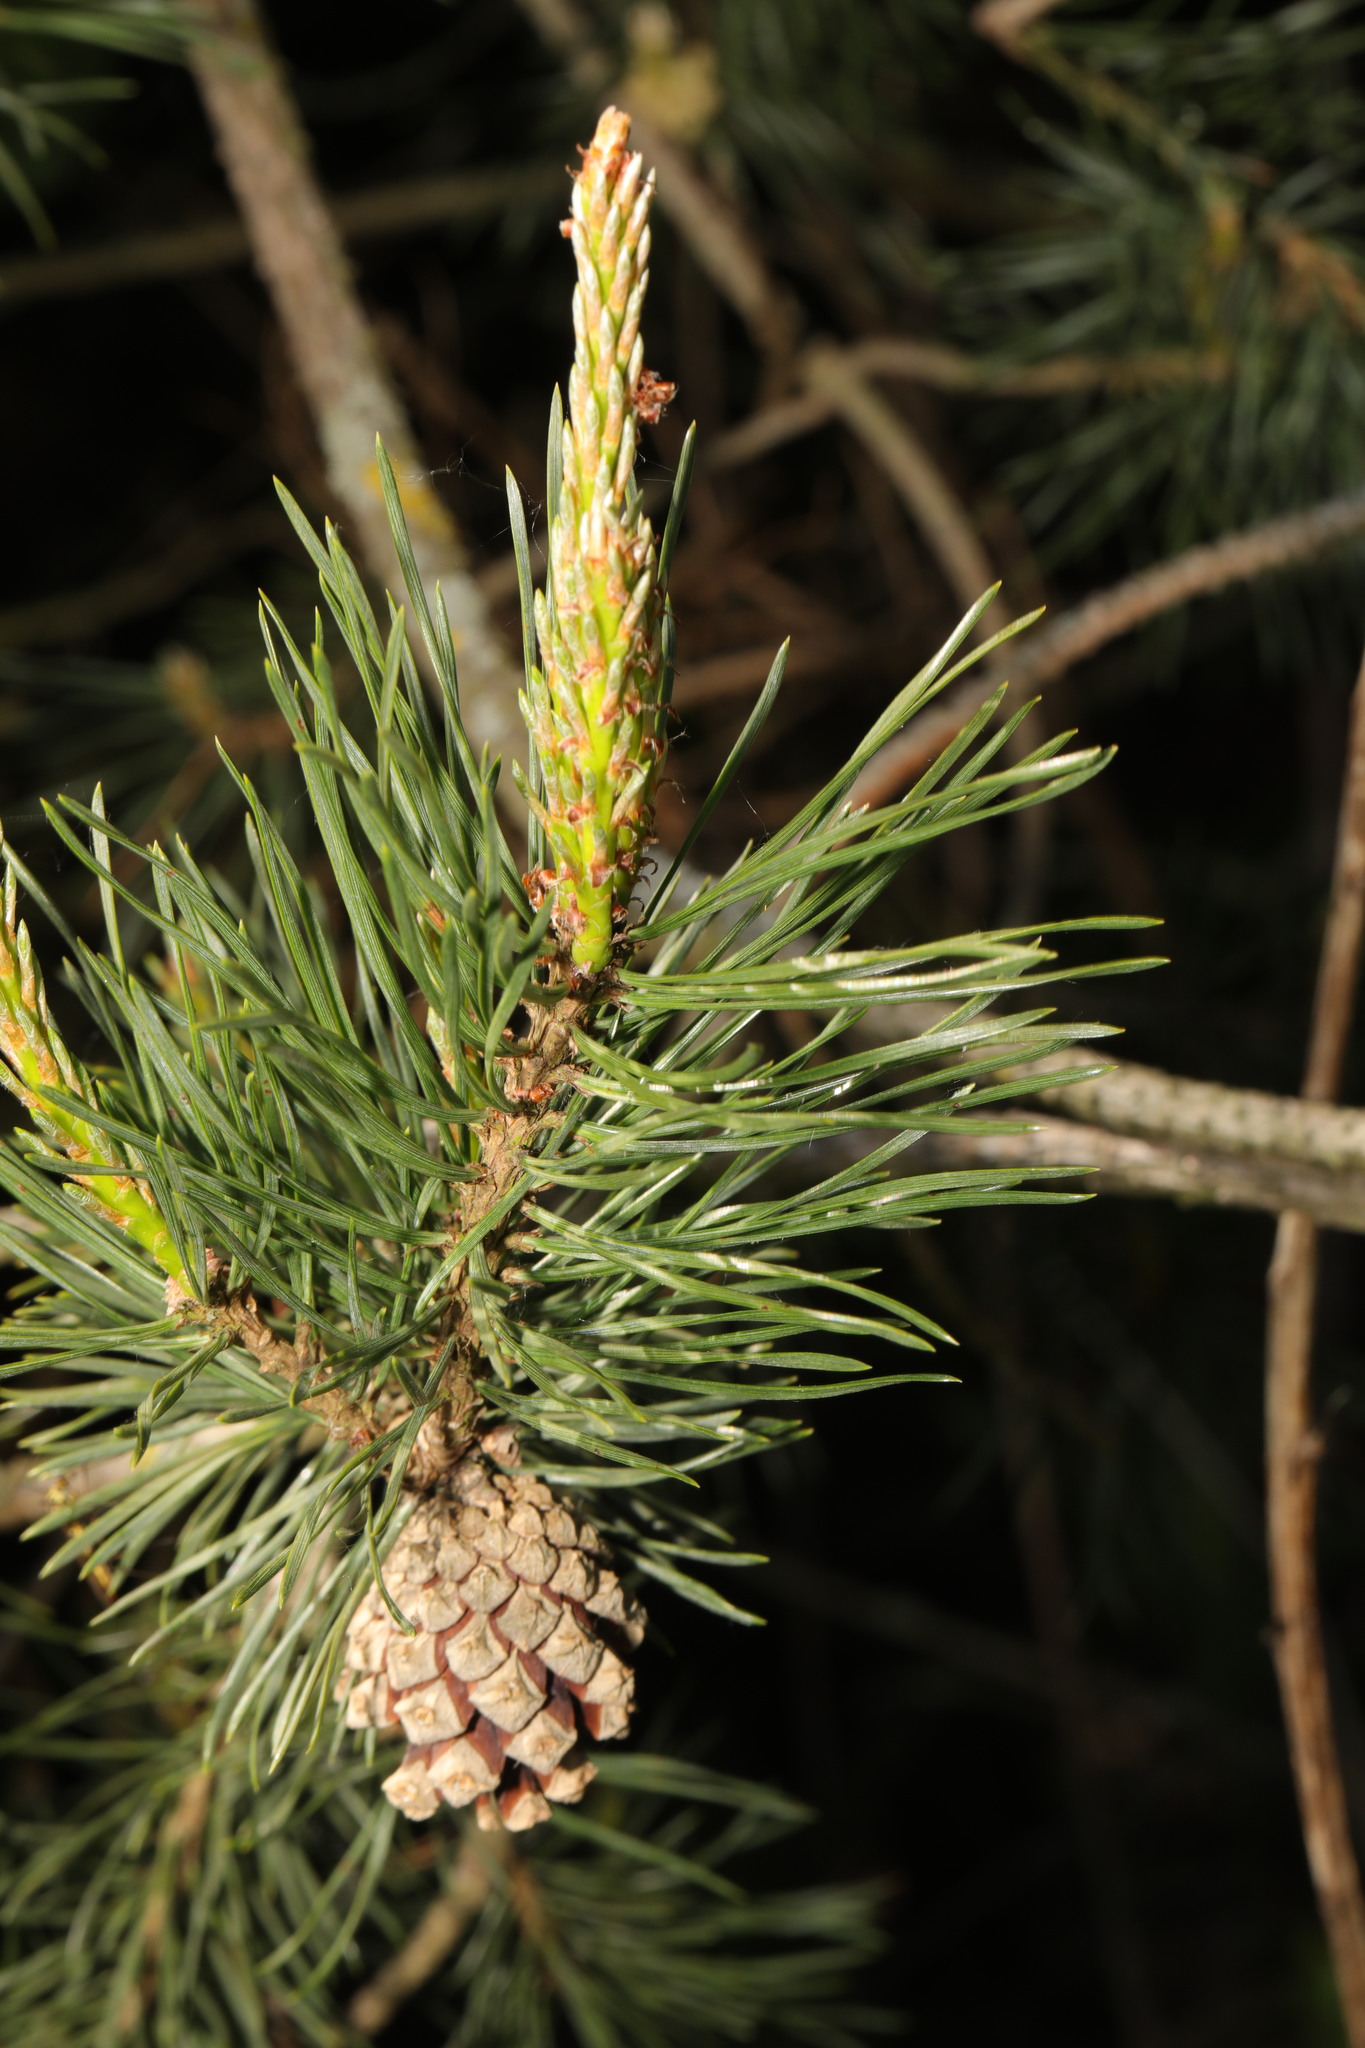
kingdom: Plantae
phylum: Tracheophyta
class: Pinopsida
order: Pinales
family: Pinaceae
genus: Pinus
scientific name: Pinus sylvestris
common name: Scots pine
